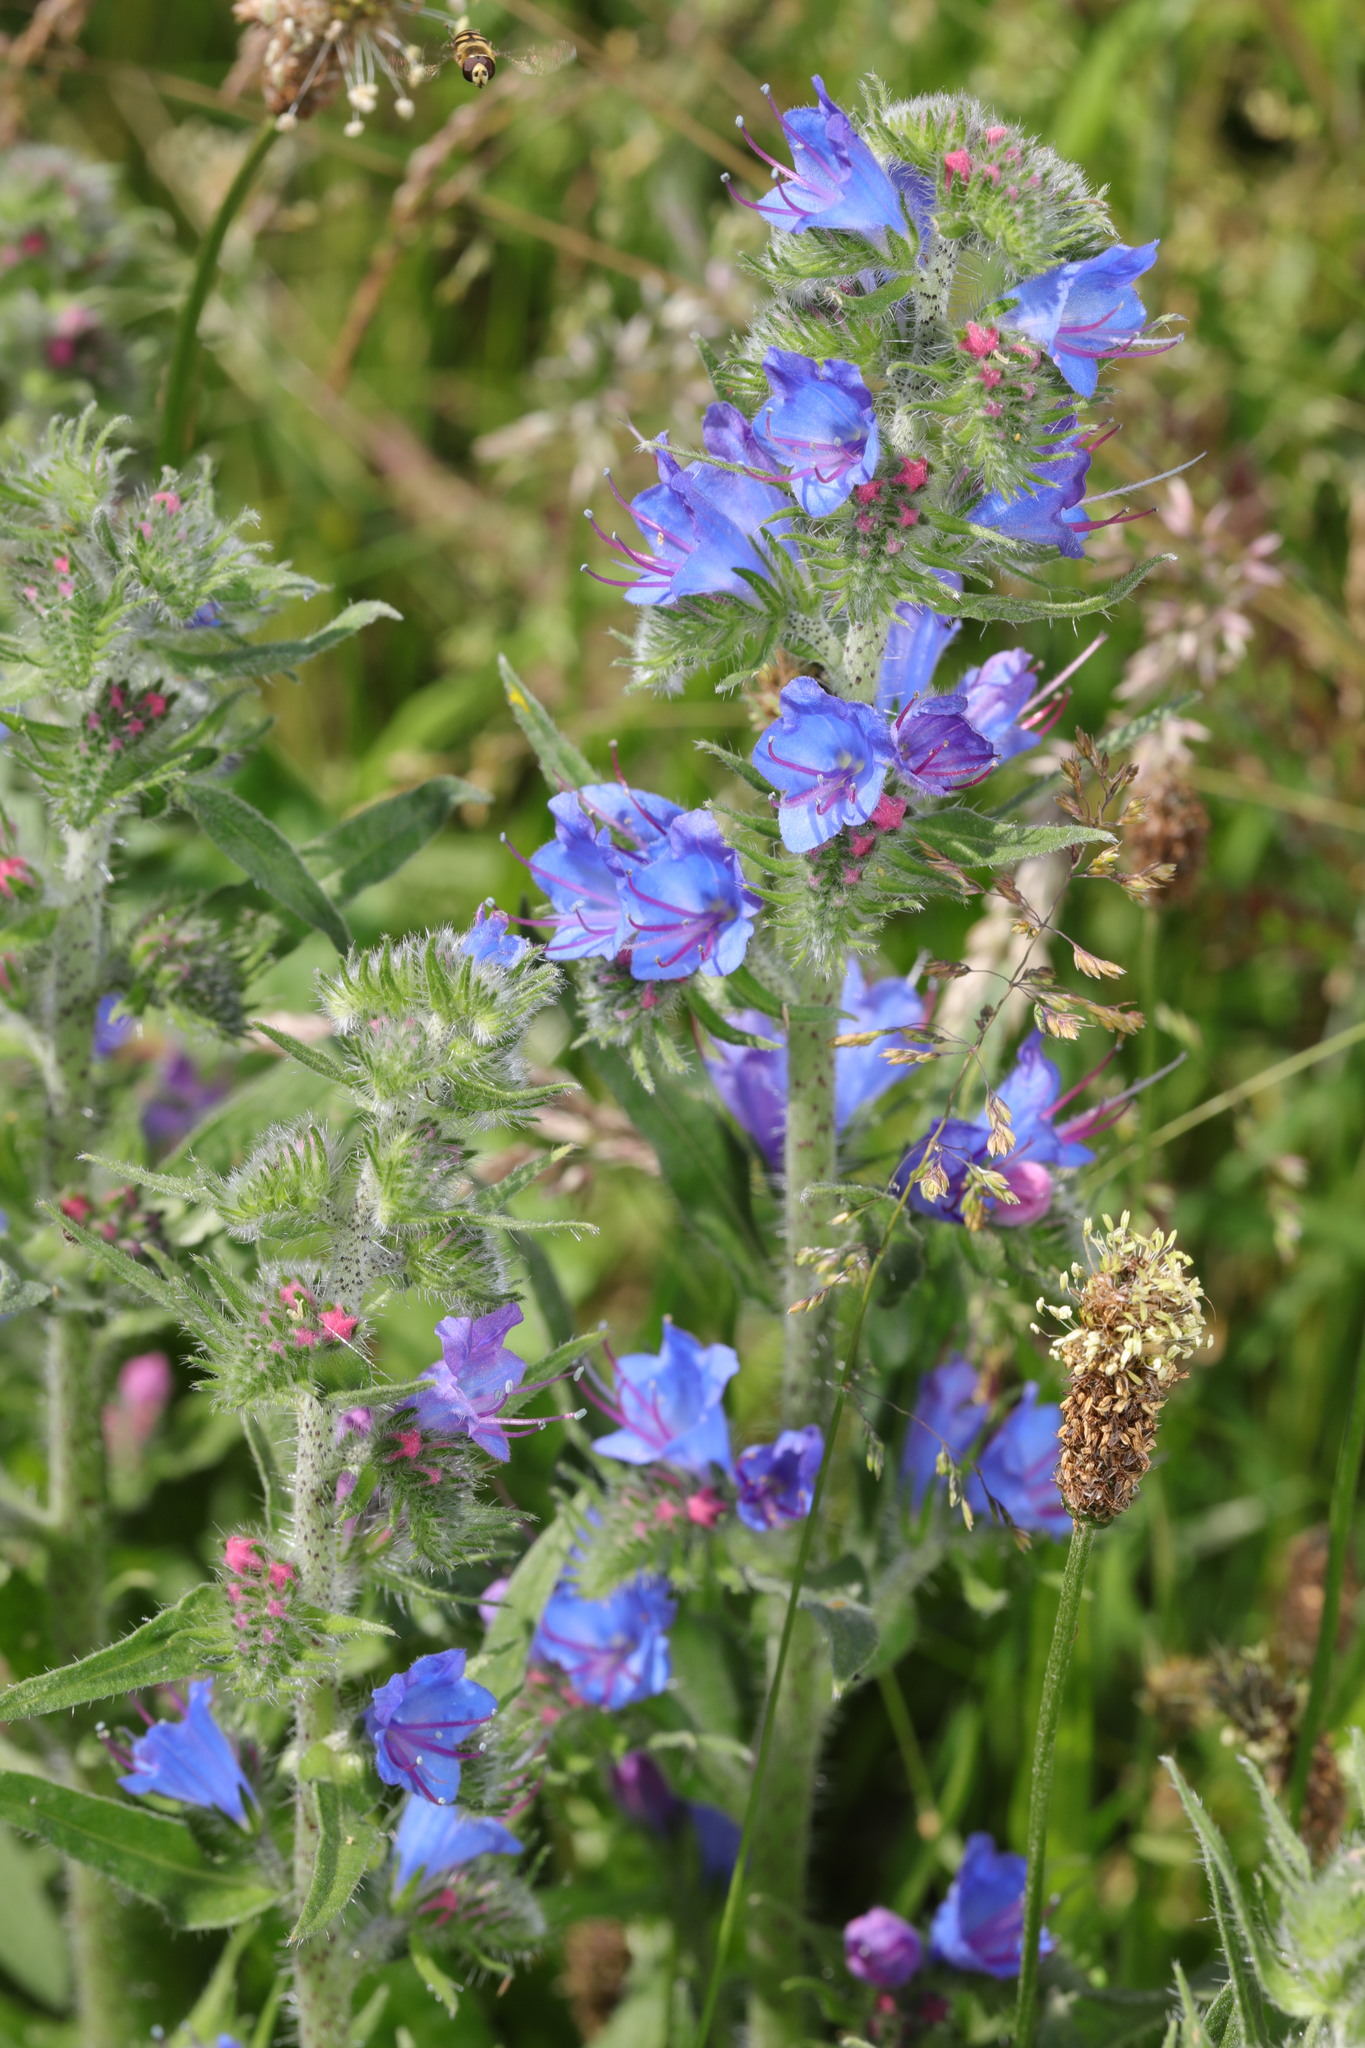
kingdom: Plantae
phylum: Tracheophyta
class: Magnoliopsida
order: Boraginales
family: Boraginaceae
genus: Echium
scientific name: Echium vulgare
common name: Common viper's bugloss
